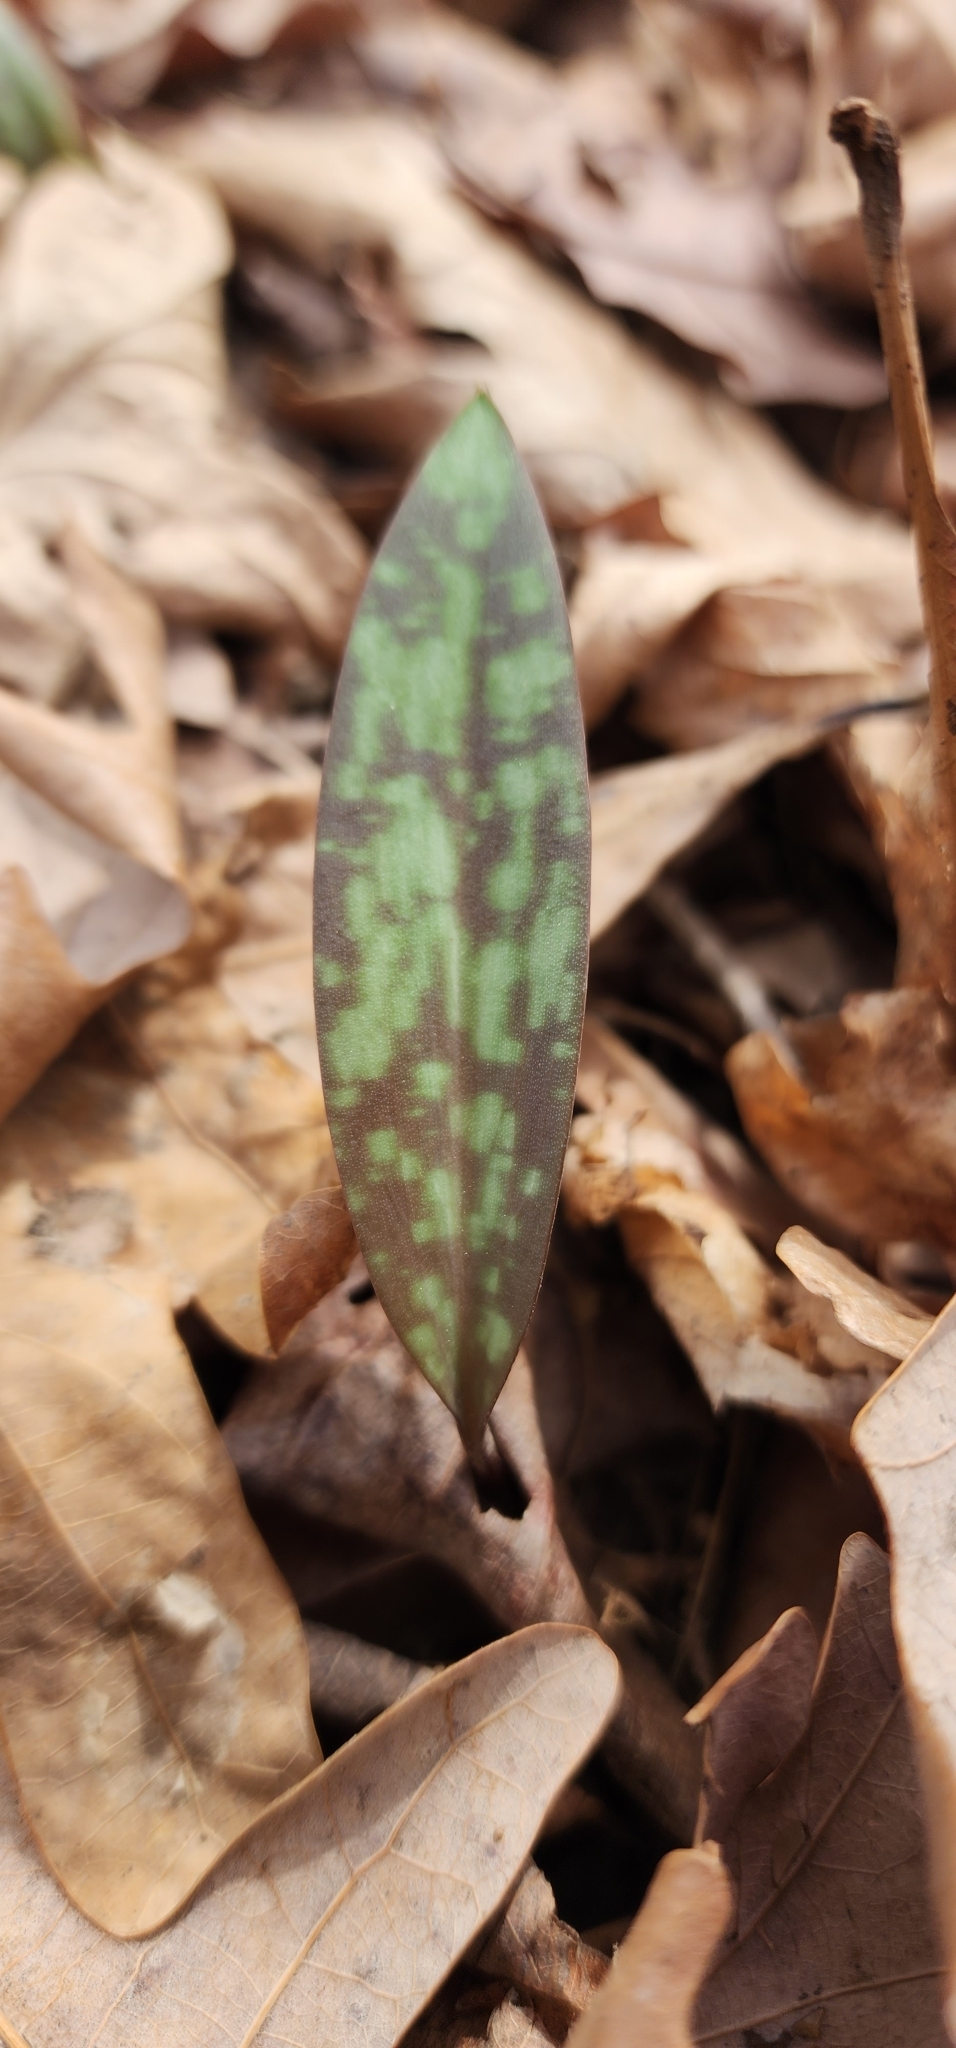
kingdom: Plantae
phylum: Tracheophyta
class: Liliopsida
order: Liliales
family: Liliaceae
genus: Erythronium
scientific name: Erythronium americanum
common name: Yellow adder's-tongue
